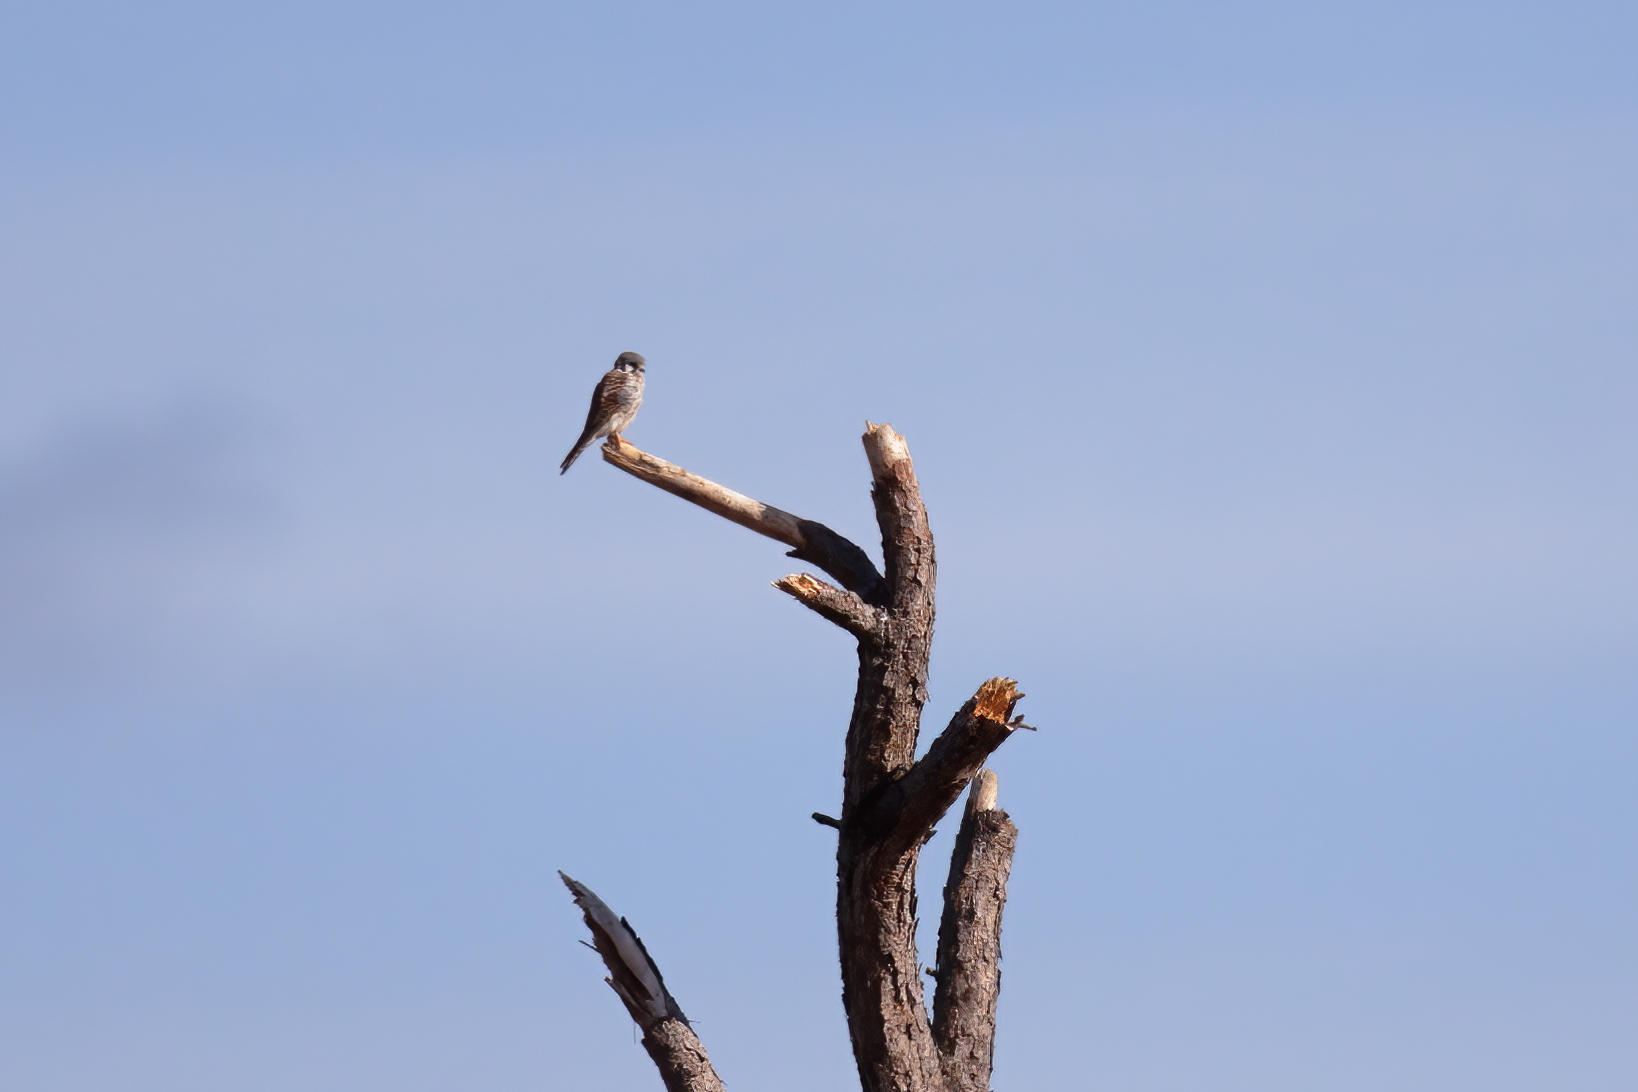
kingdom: Animalia
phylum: Chordata
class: Aves
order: Falconiformes
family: Falconidae
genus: Falco
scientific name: Falco sparverius
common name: American kestrel
